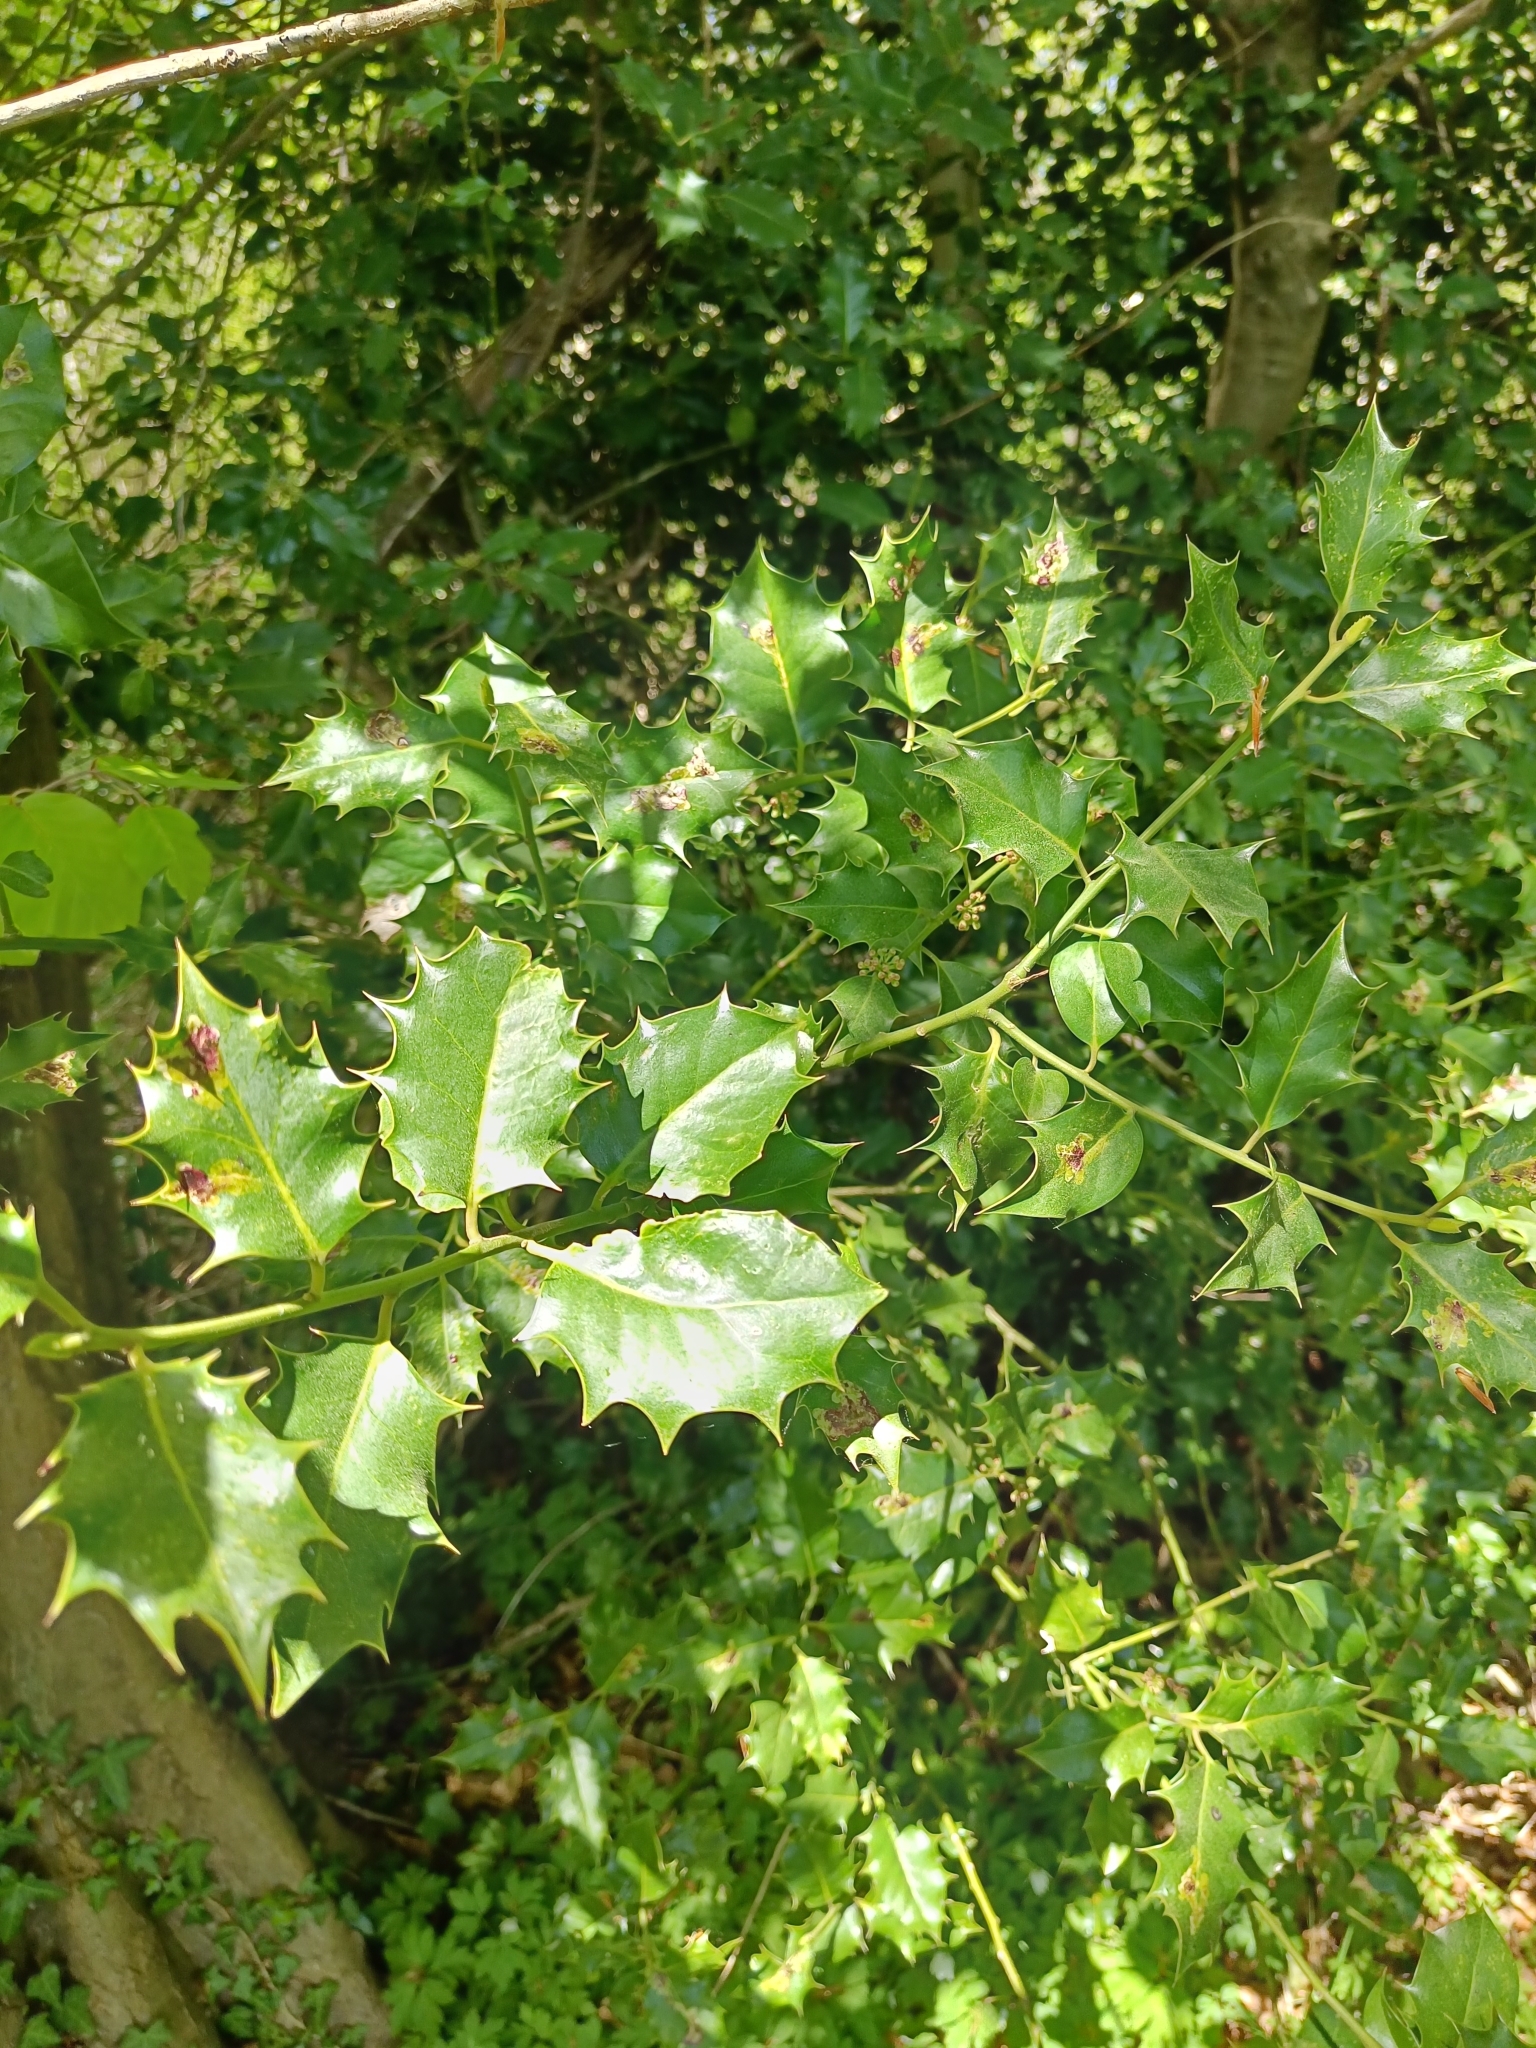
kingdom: Plantae
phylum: Tracheophyta
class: Magnoliopsida
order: Aquifoliales
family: Aquifoliaceae
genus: Ilex
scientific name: Ilex aquifolium
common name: English holly
